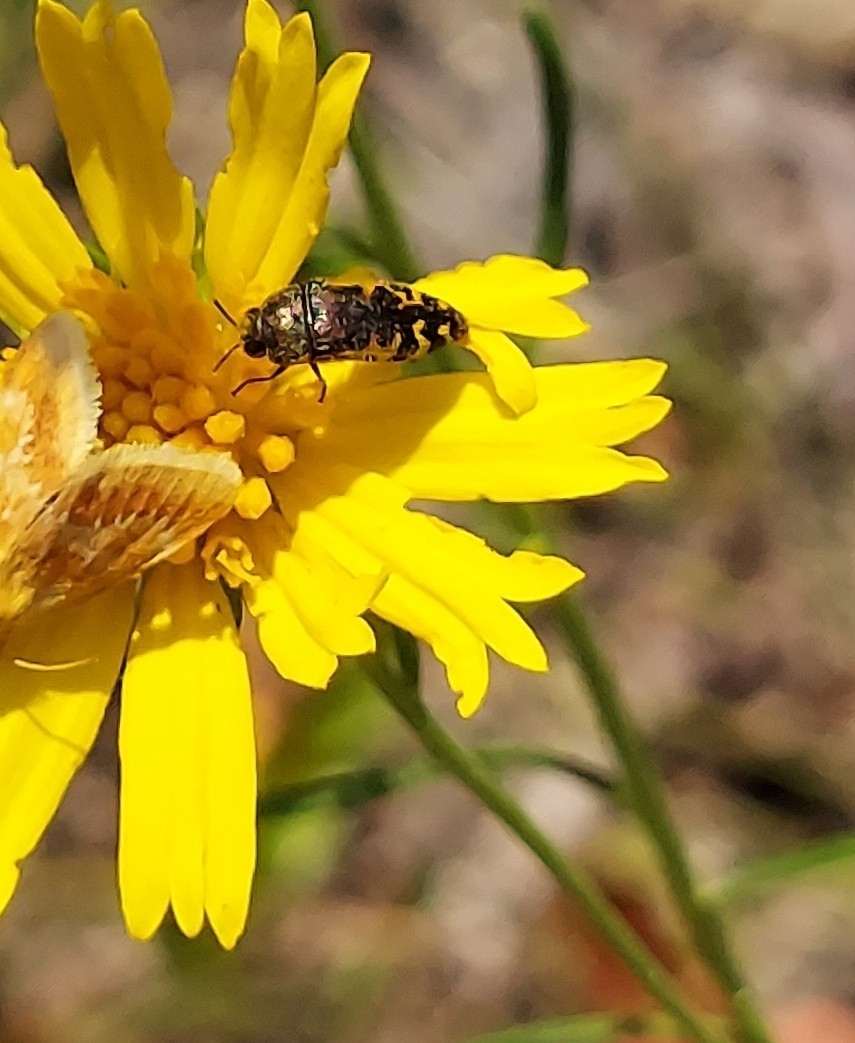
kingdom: Animalia
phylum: Arthropoda
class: Insecta
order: Coleoptera
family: Buprestidae
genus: Acmaeodera
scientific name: Acmaeodera pulchella
